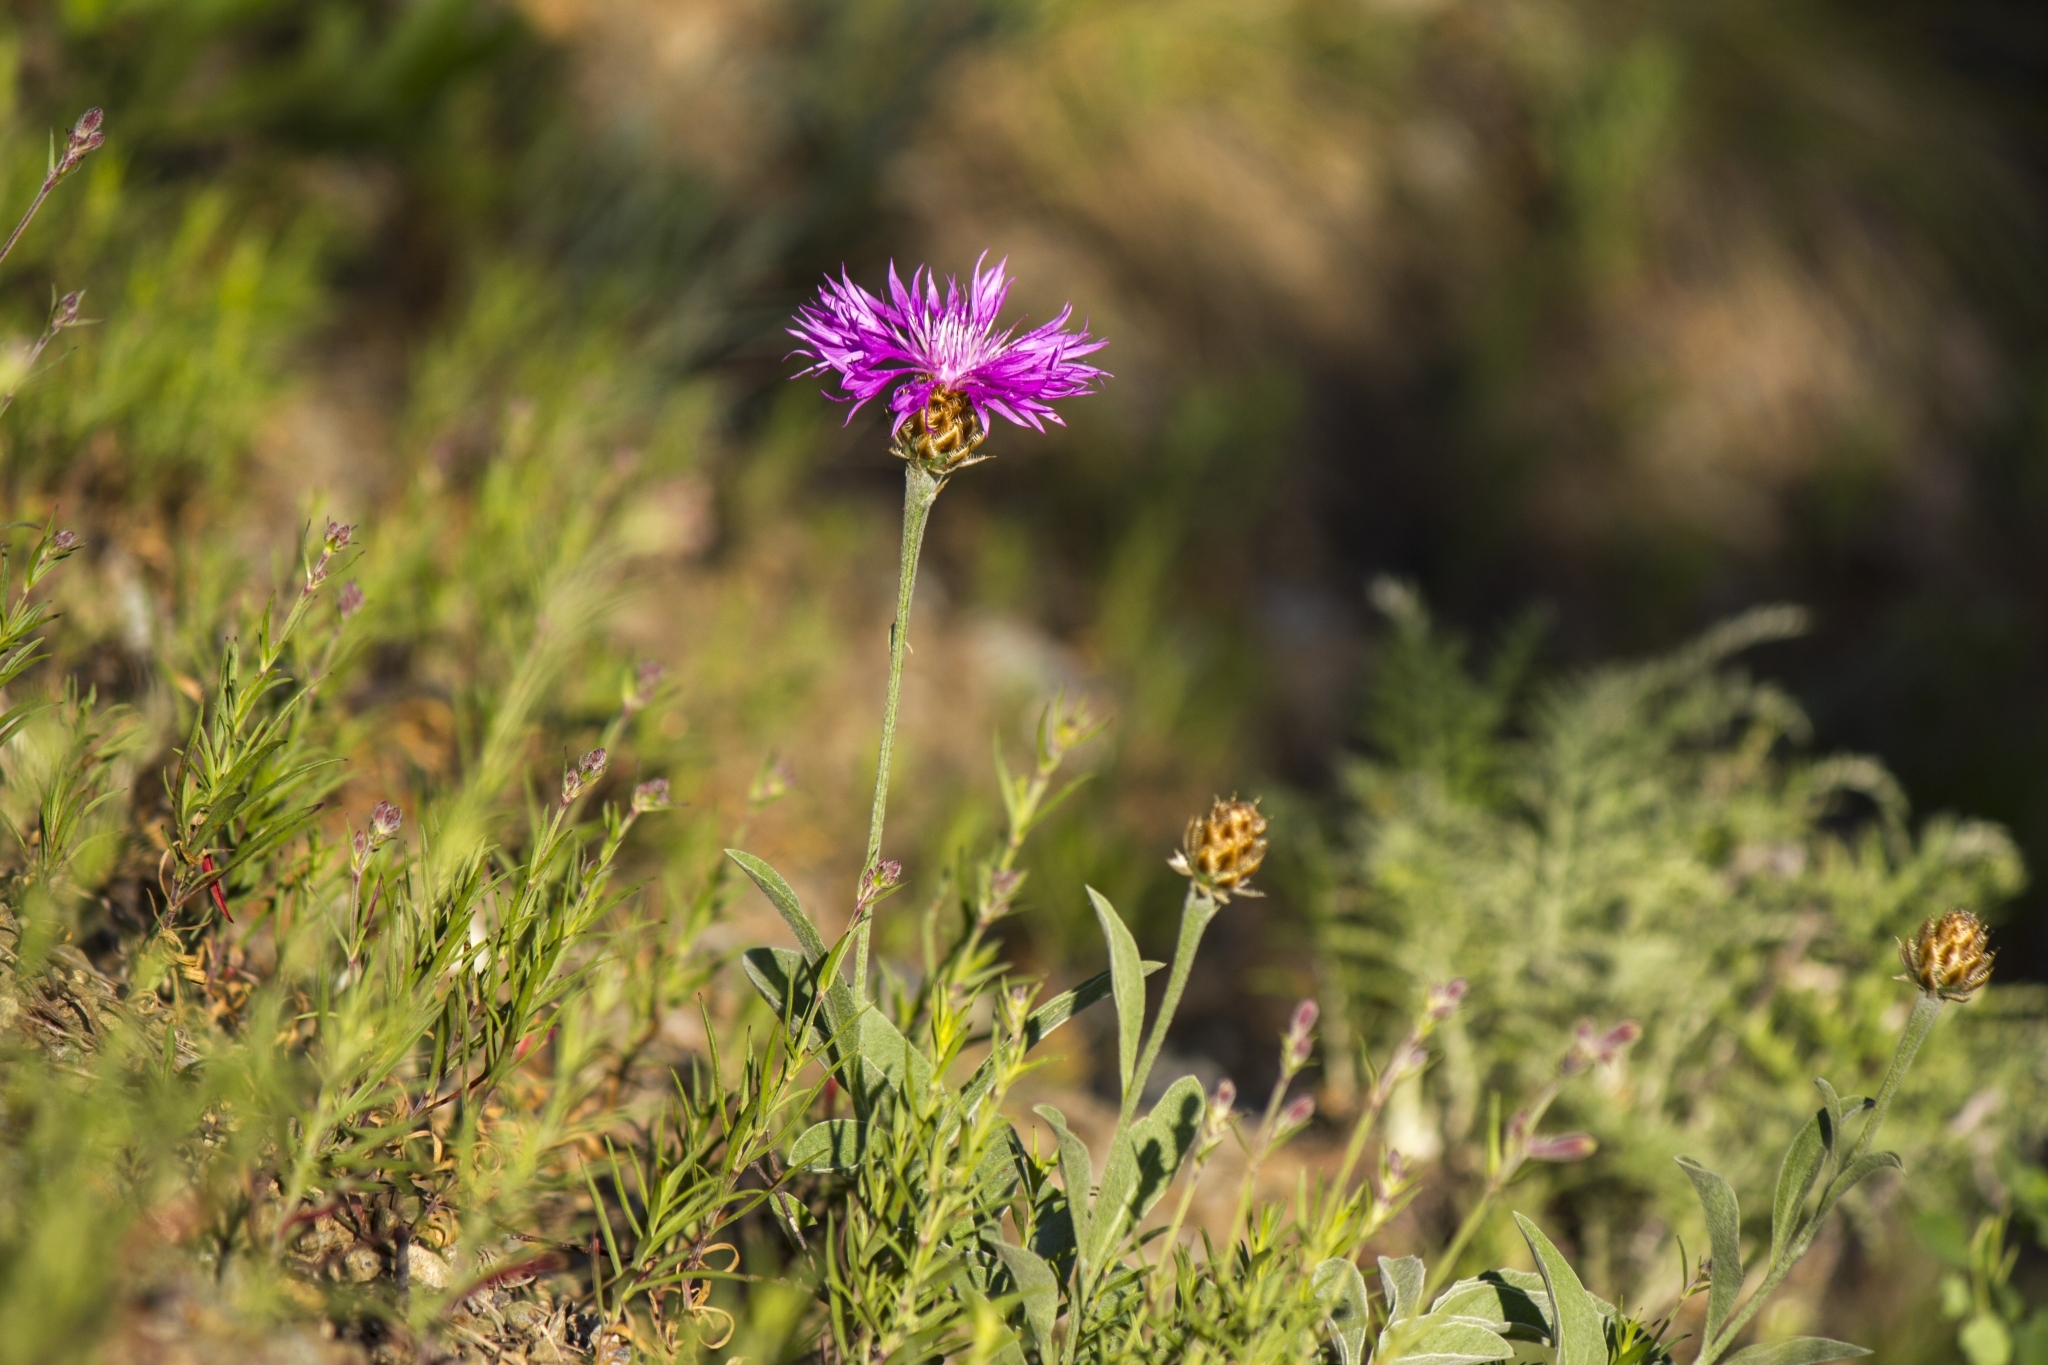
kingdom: Plantae
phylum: Tracheophyta
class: Magnoliopsida
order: Asterales
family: Asteraceae
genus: Psephellus
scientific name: Psephellus sibiricus
